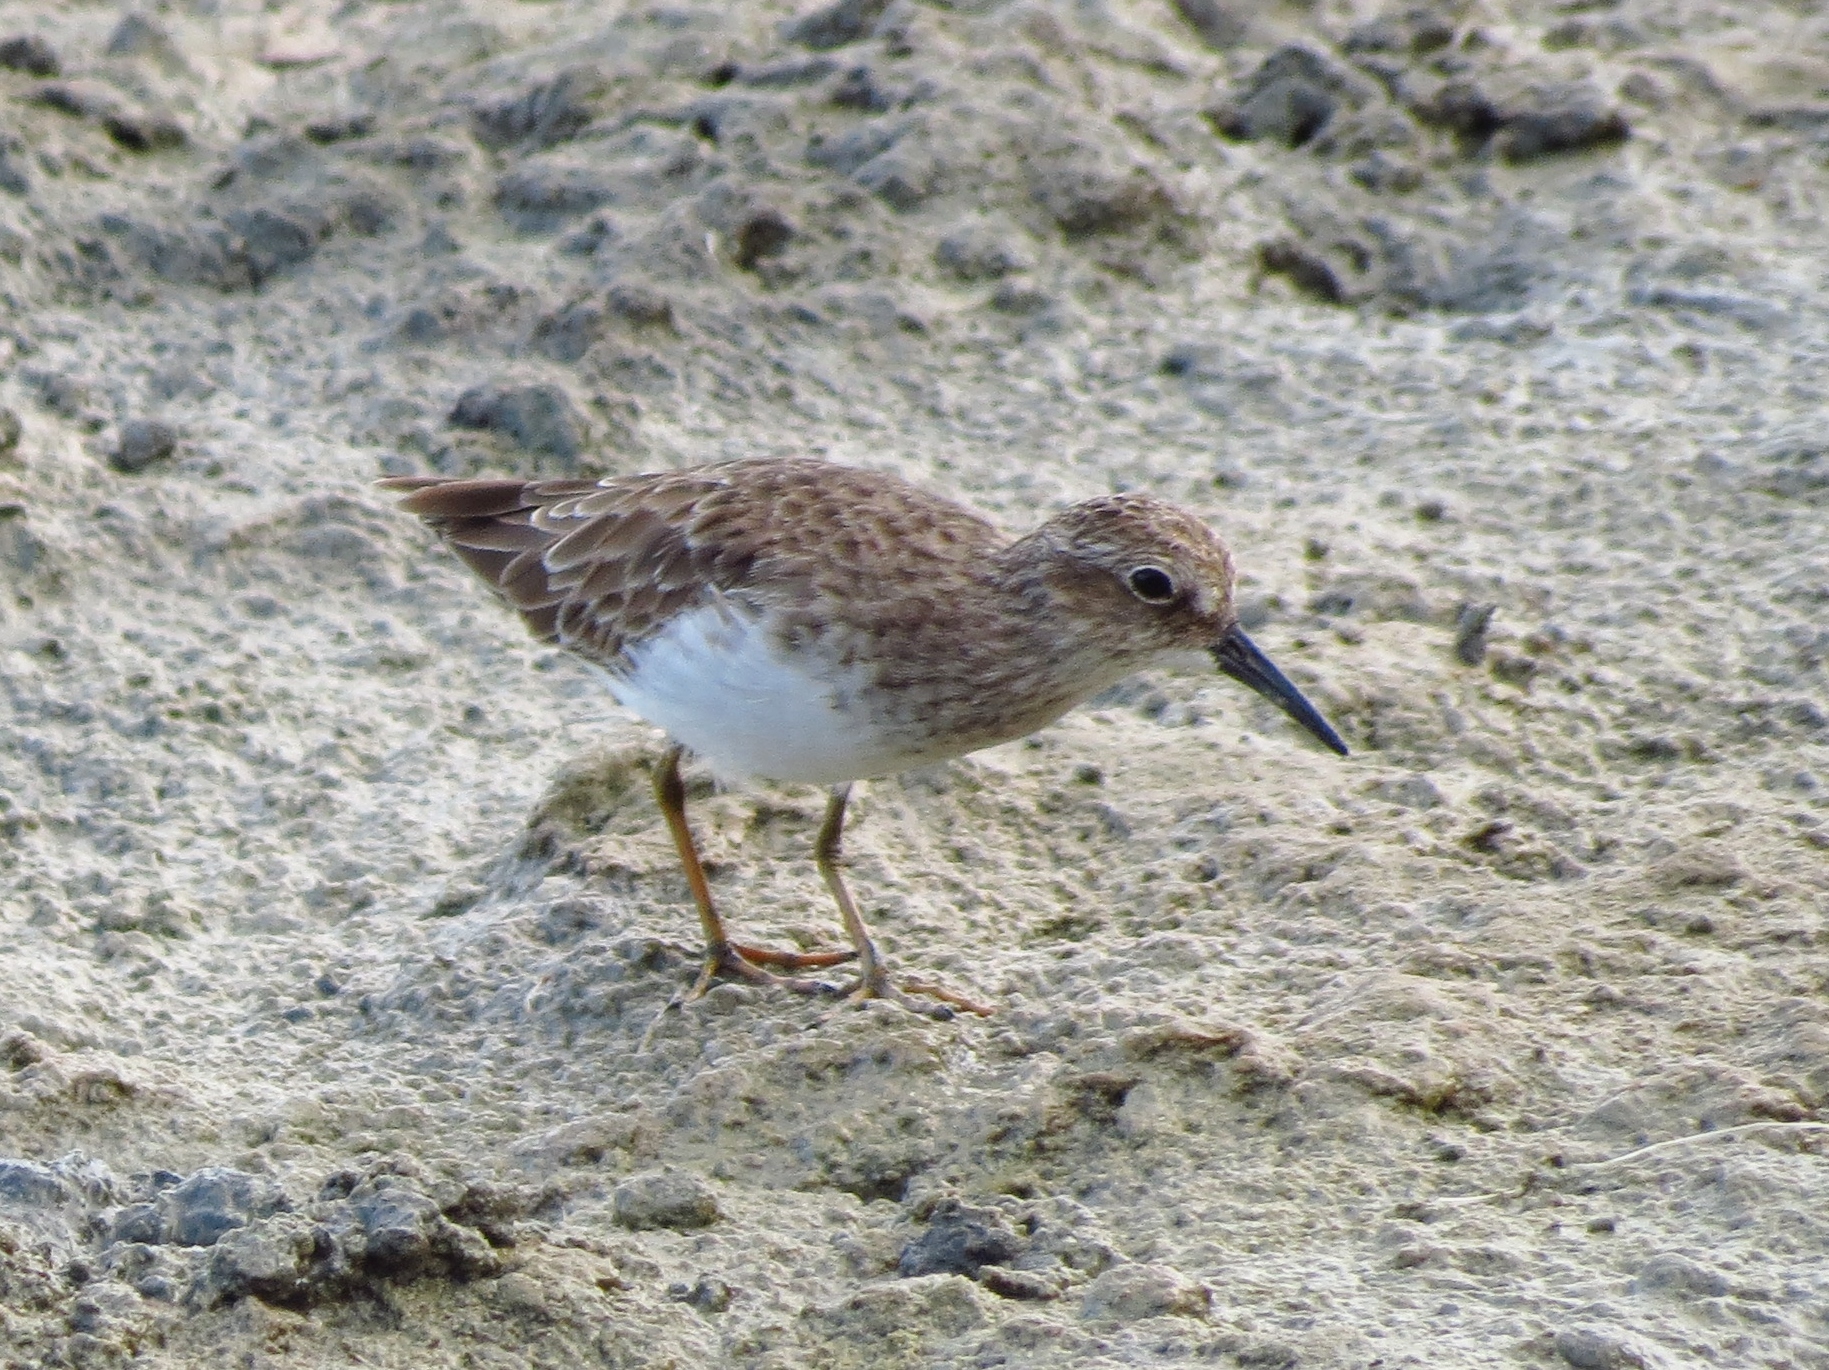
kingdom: Animalia
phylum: Chordata
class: Aves
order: Charadriiformes
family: Scolopacidae
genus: Calidris
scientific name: Calidris minutilla
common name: Least sandpiper
